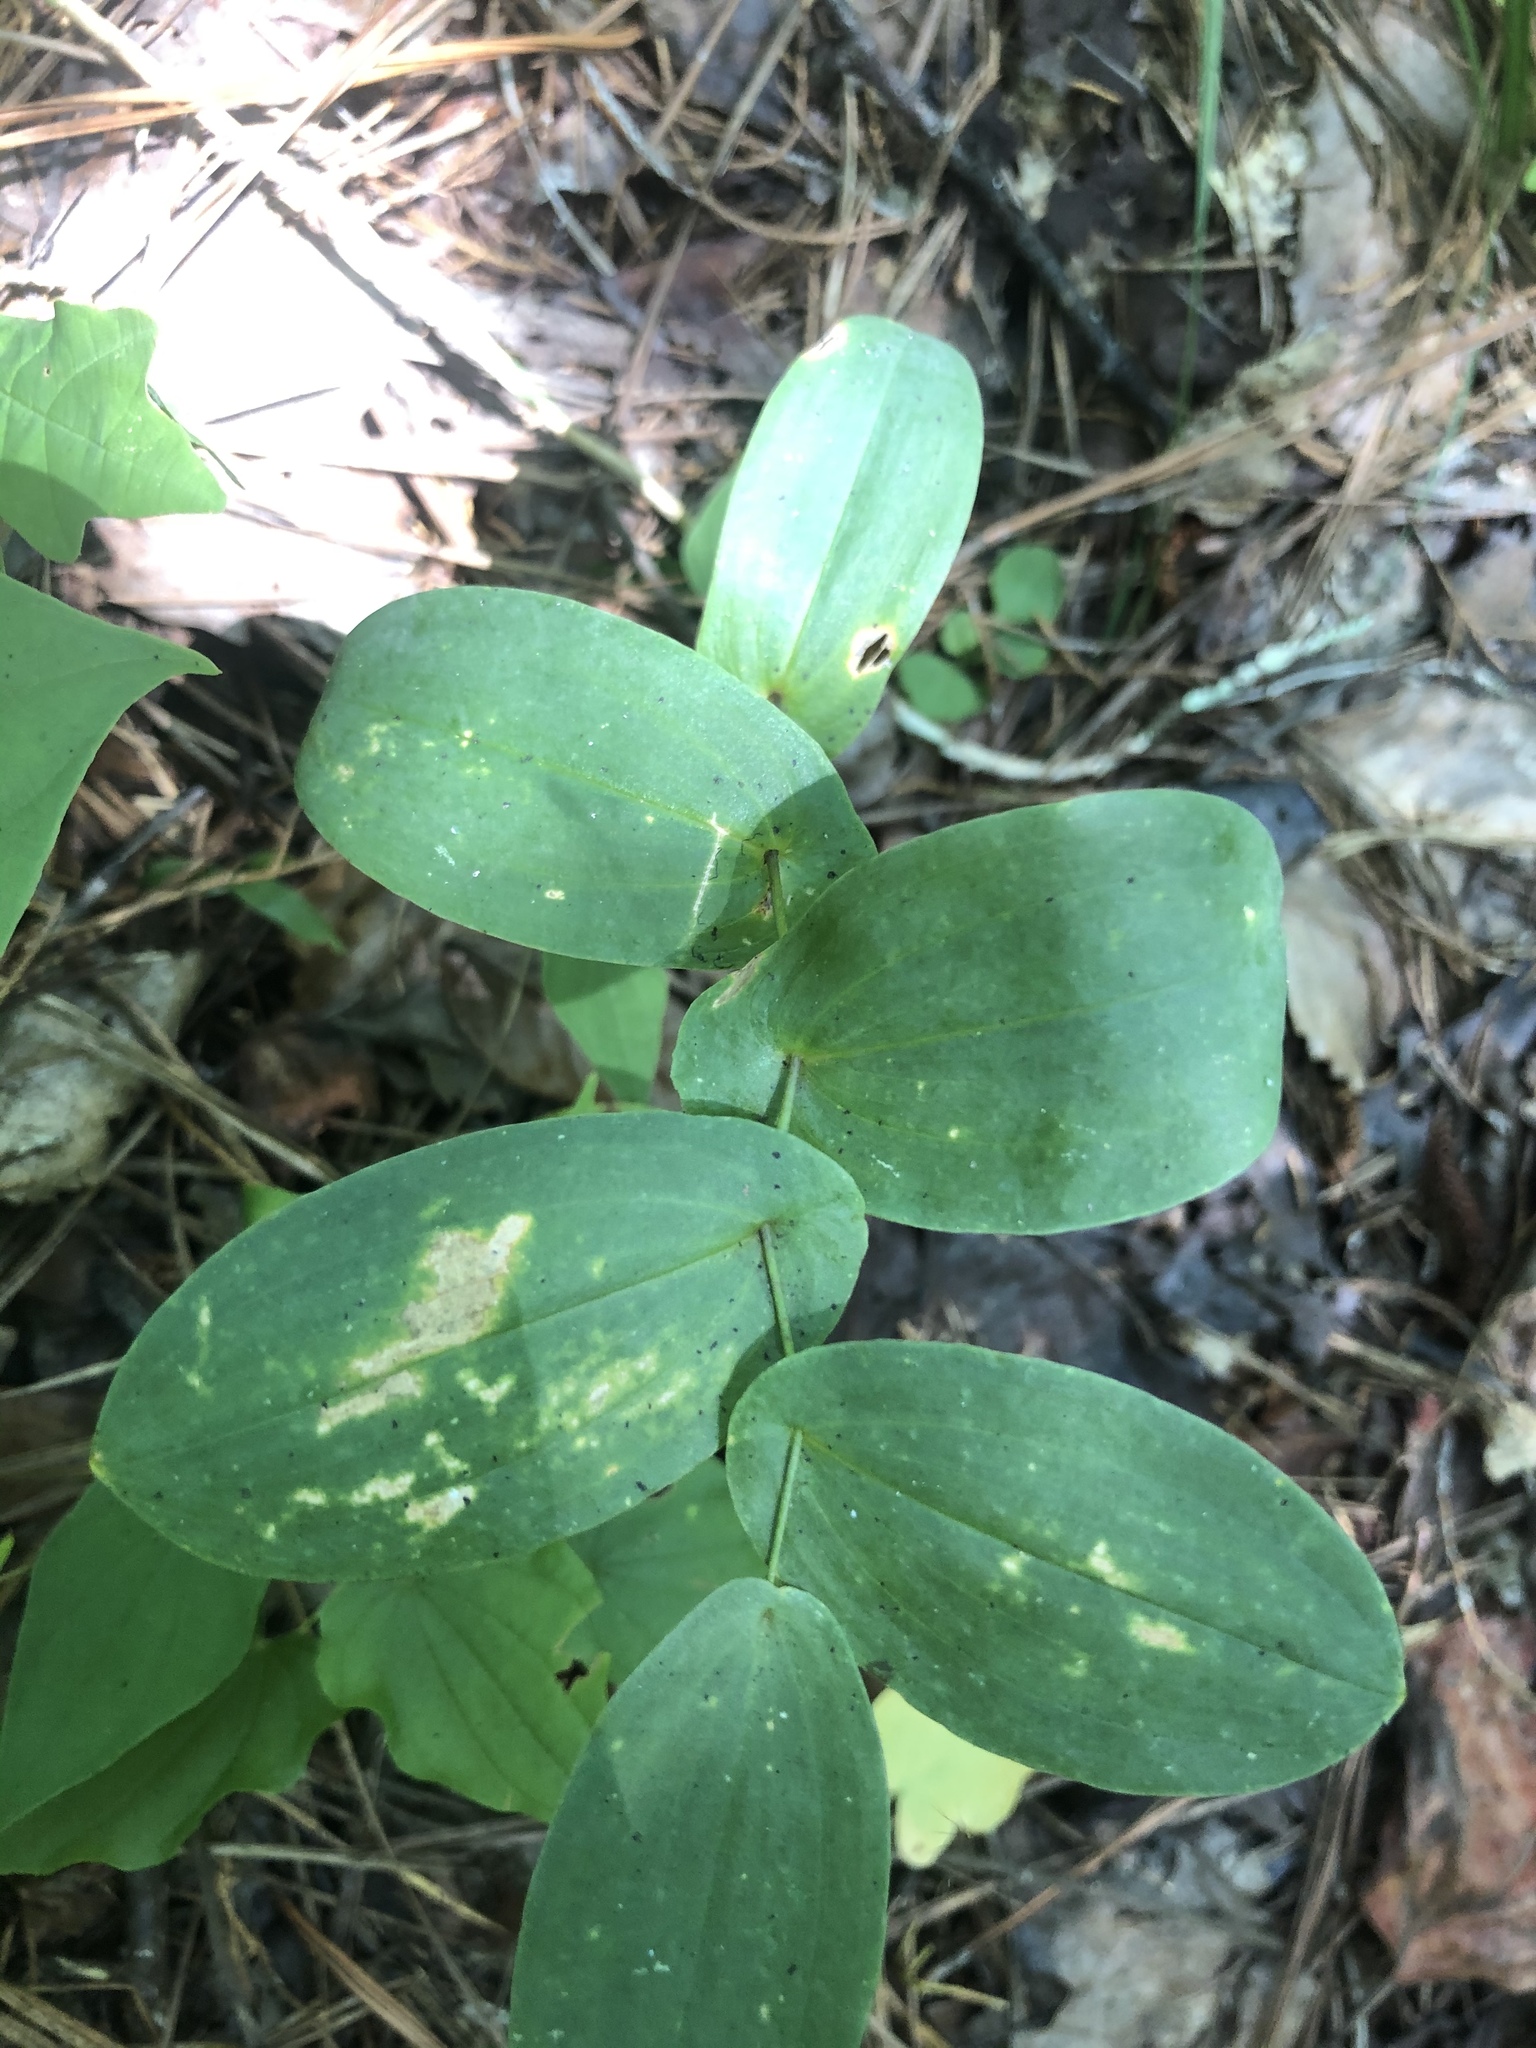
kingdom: Plantae
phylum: Tracheophyta
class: Liliopsida
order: Liliales
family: Colchicaceae
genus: Uvularia
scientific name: Uvularia perfoliata
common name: Perfoliate bellwort
